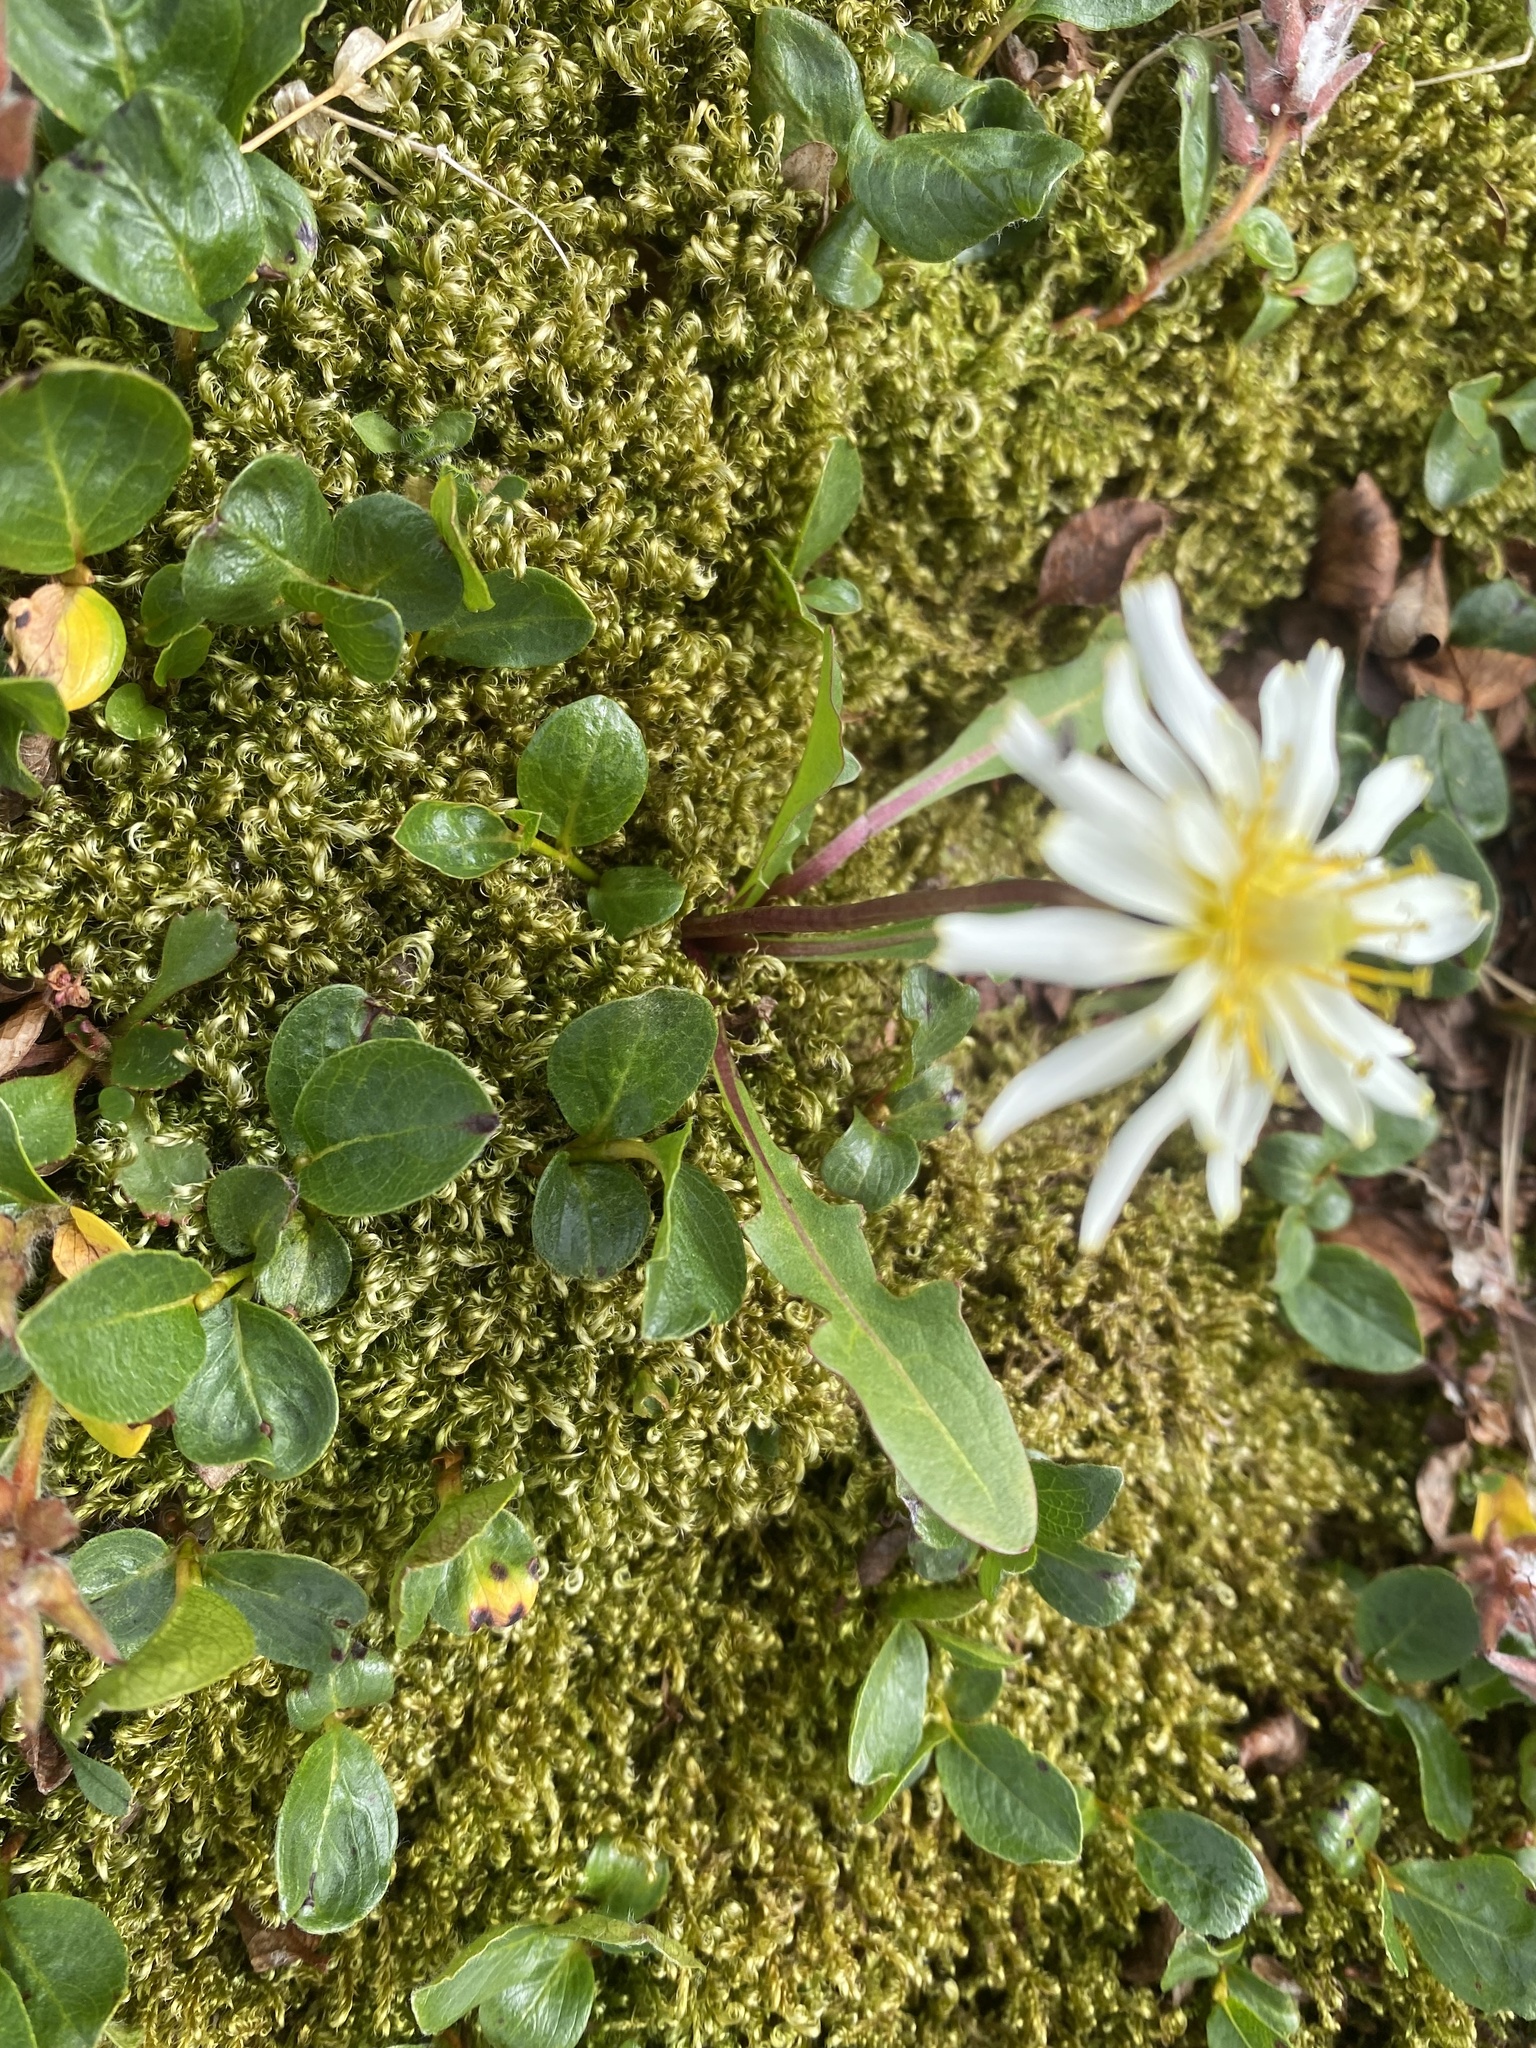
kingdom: Plantae
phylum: Tracheophyta
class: Magnoliopsida
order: Asterales
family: Asteraceae
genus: Taraxacum
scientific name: Taraxacum arcticum
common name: Arctic dandelion
